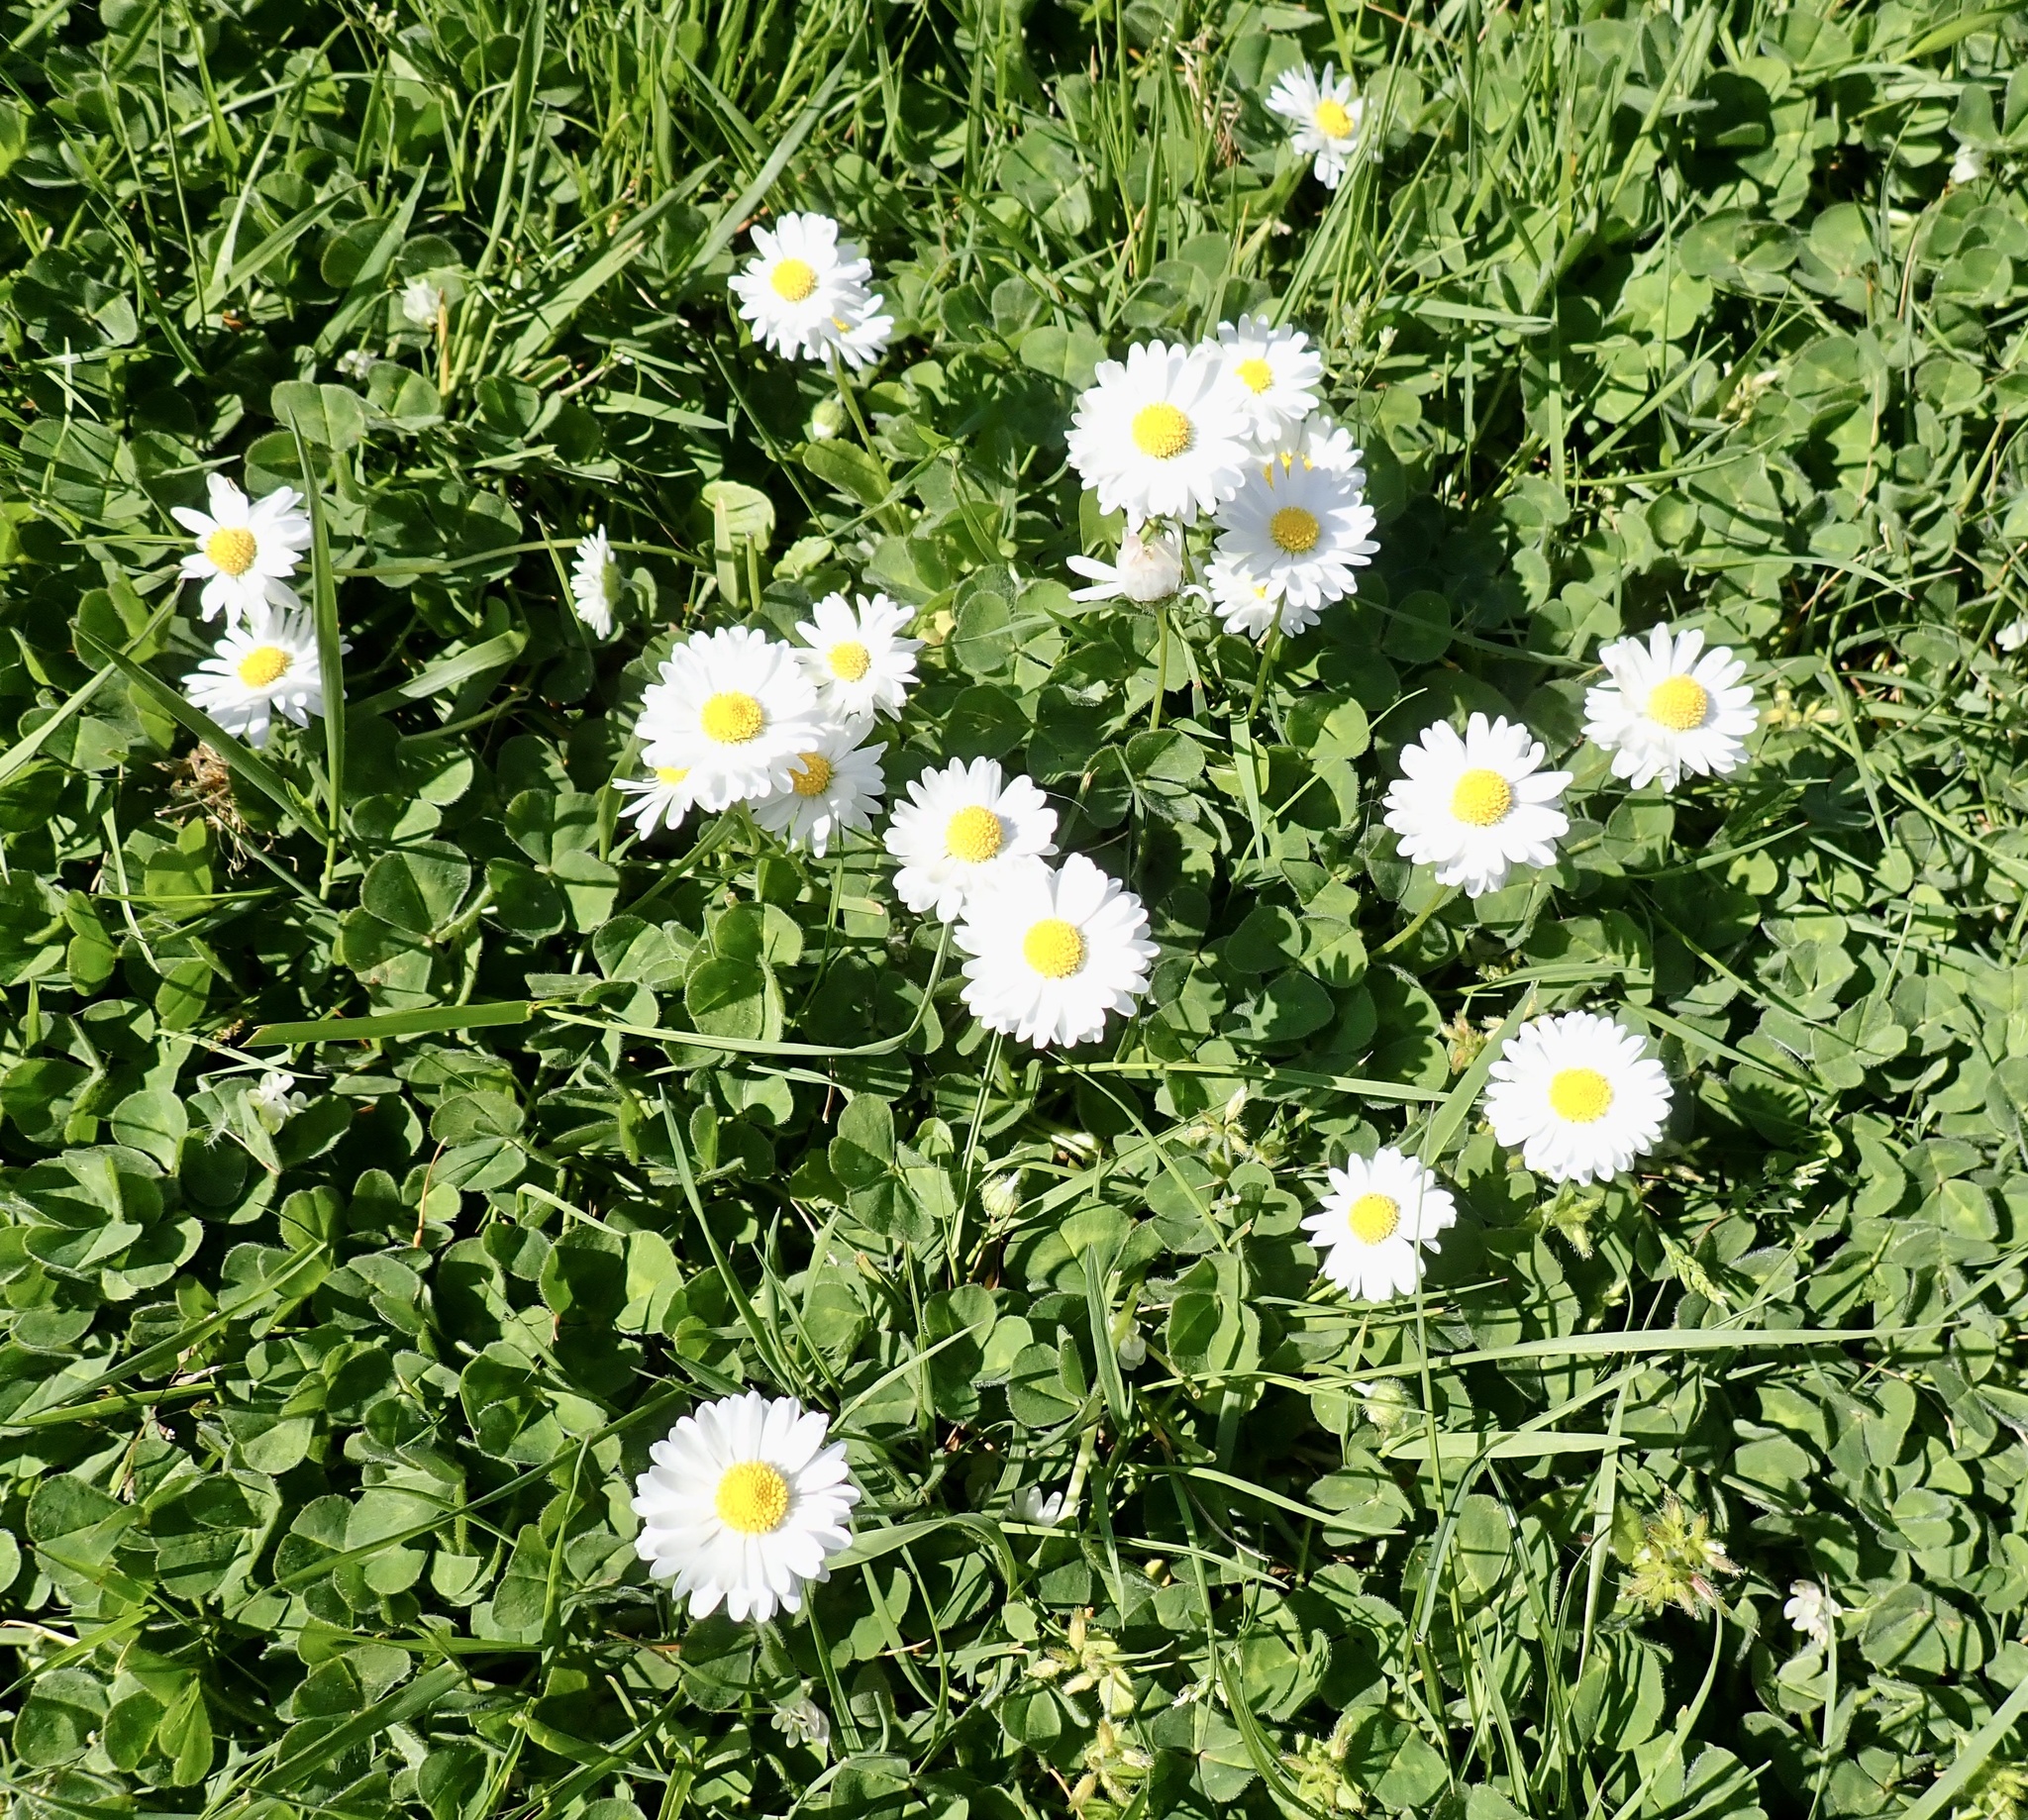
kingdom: Plantae
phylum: Tracheophyta
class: Magnoliopsida
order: Asterales
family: Asteraceae
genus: Bellis
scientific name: Bellis perennis
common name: Lawndaisy
